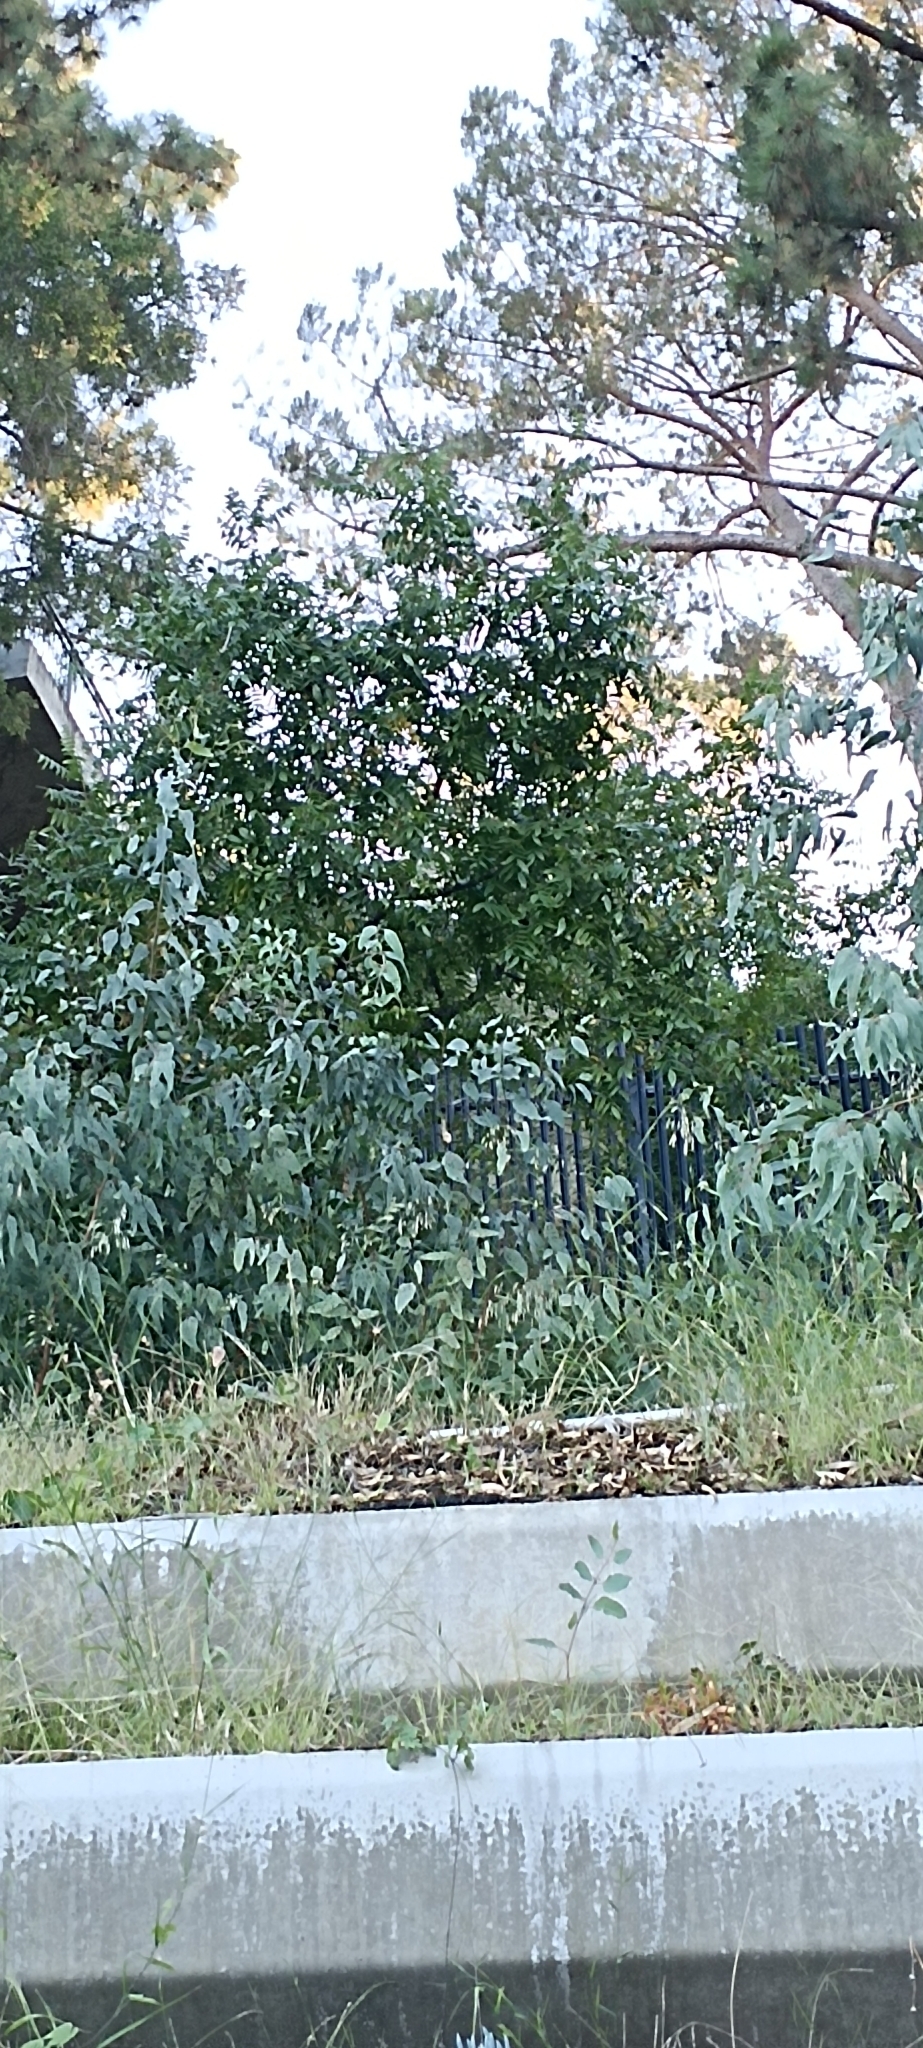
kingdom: Plantae
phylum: Tracheophyta
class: Magnoliopsida
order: Fagales
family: Juglandaceae
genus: Juglans
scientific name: Juglans californica
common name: Southern california black walnut
